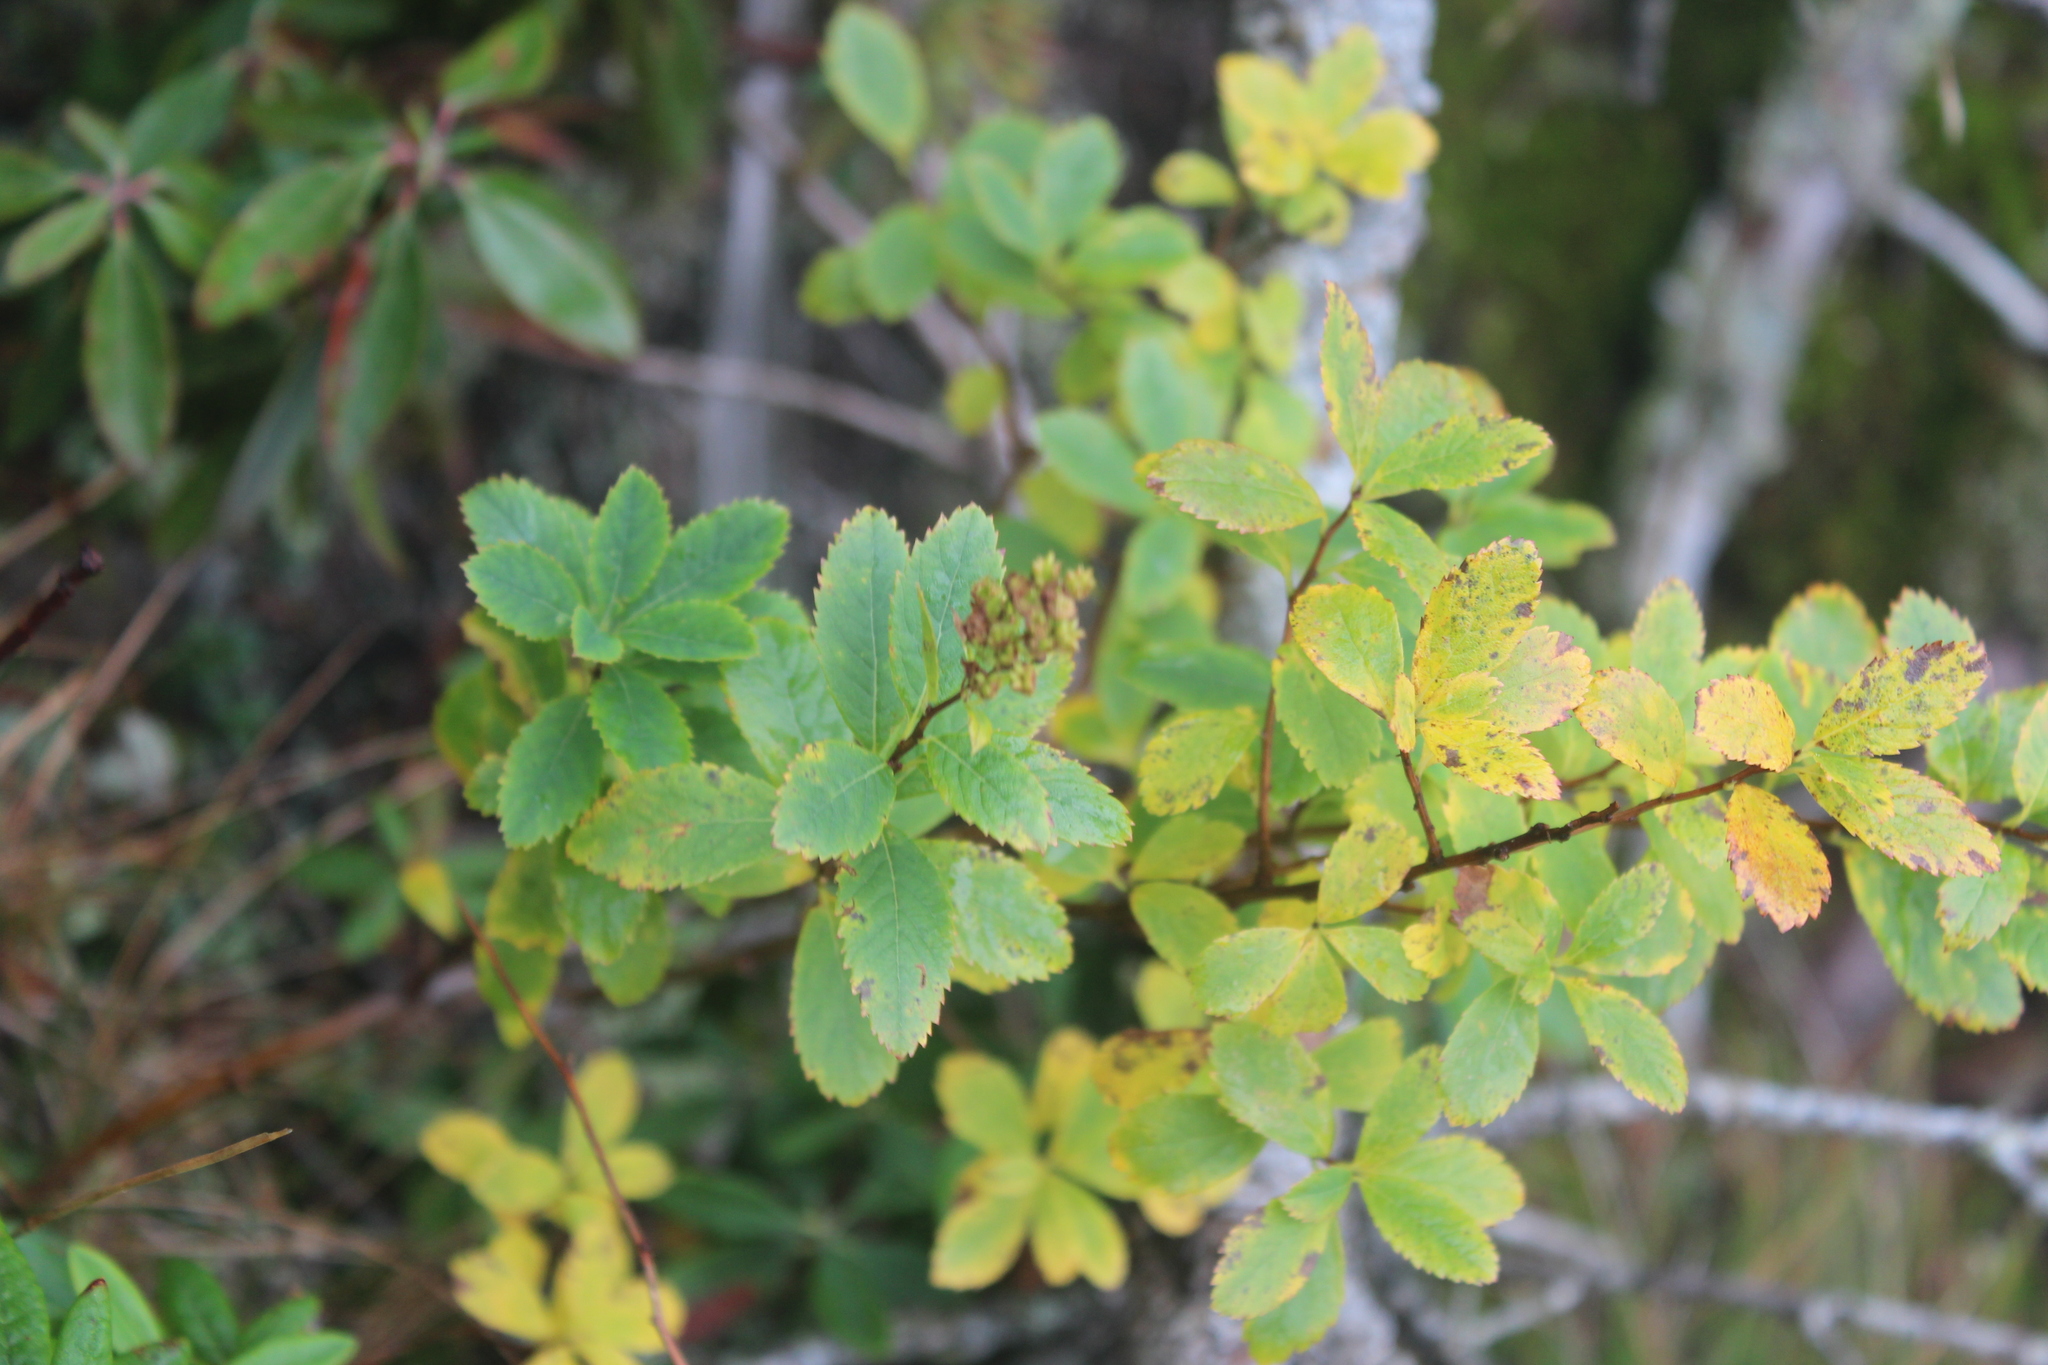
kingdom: Plantae
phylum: Tracheophyta
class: Magnoliopsida
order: Rosales
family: Rosaceae
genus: Spiraea
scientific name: Spiraea alba
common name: Pale bridewort
